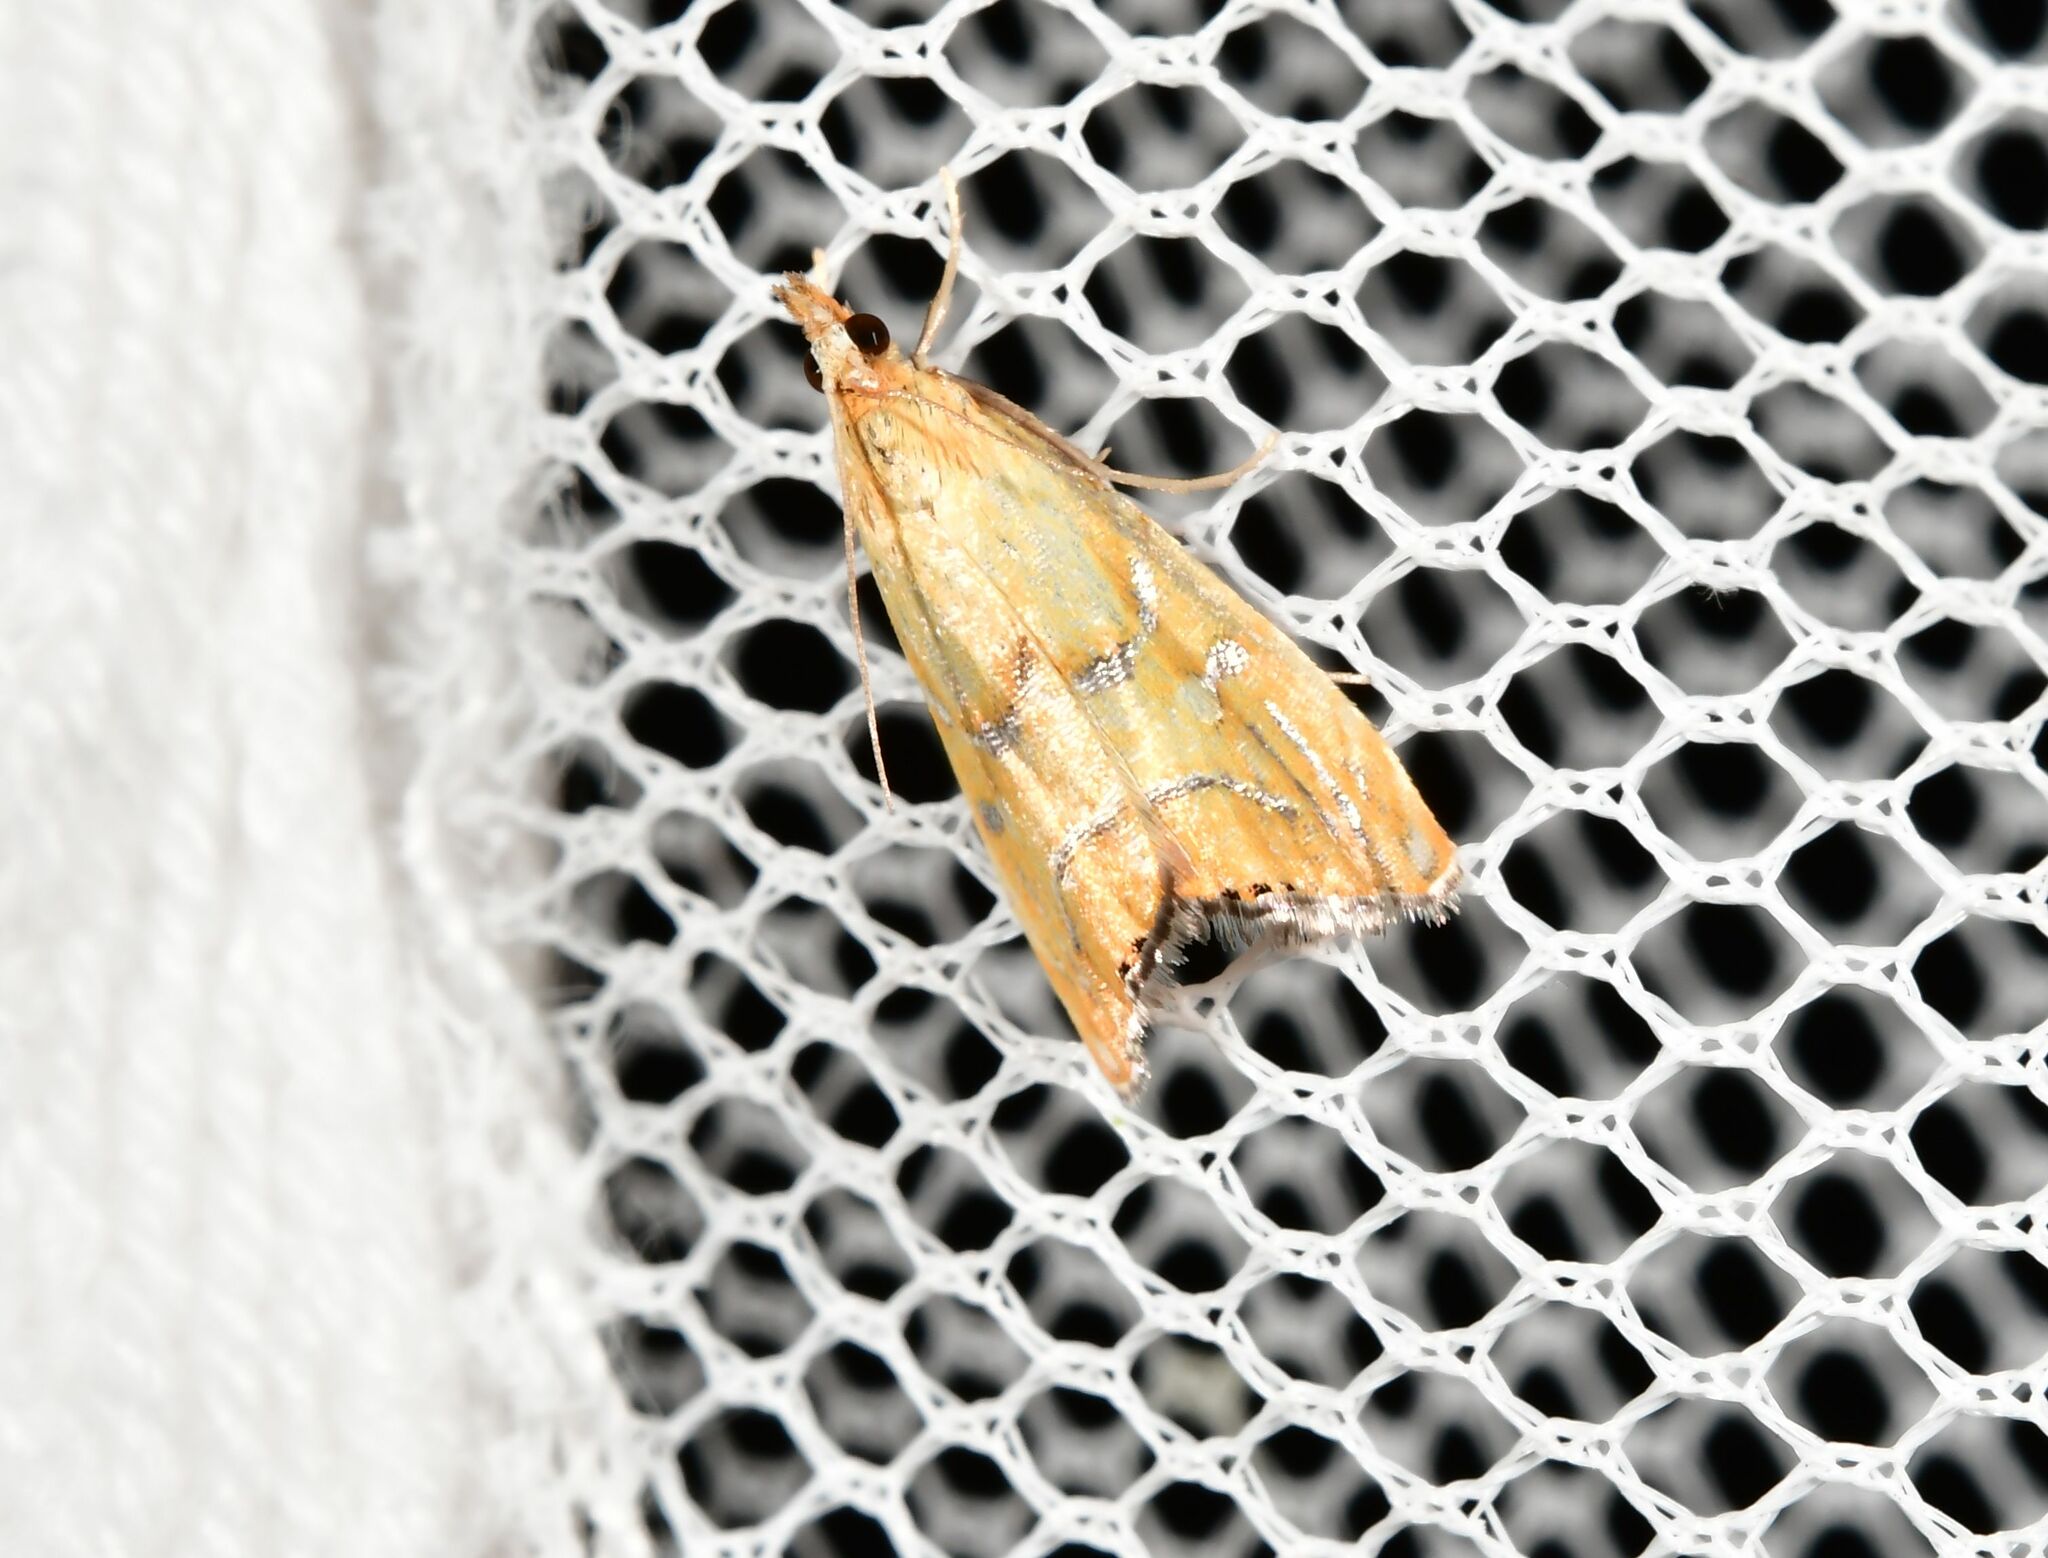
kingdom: Animalia
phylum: Arthropoda
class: Insecta
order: Lepidoptera
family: Crambidae
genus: Glaucocharis
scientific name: Glaucocharis auriscriptella
